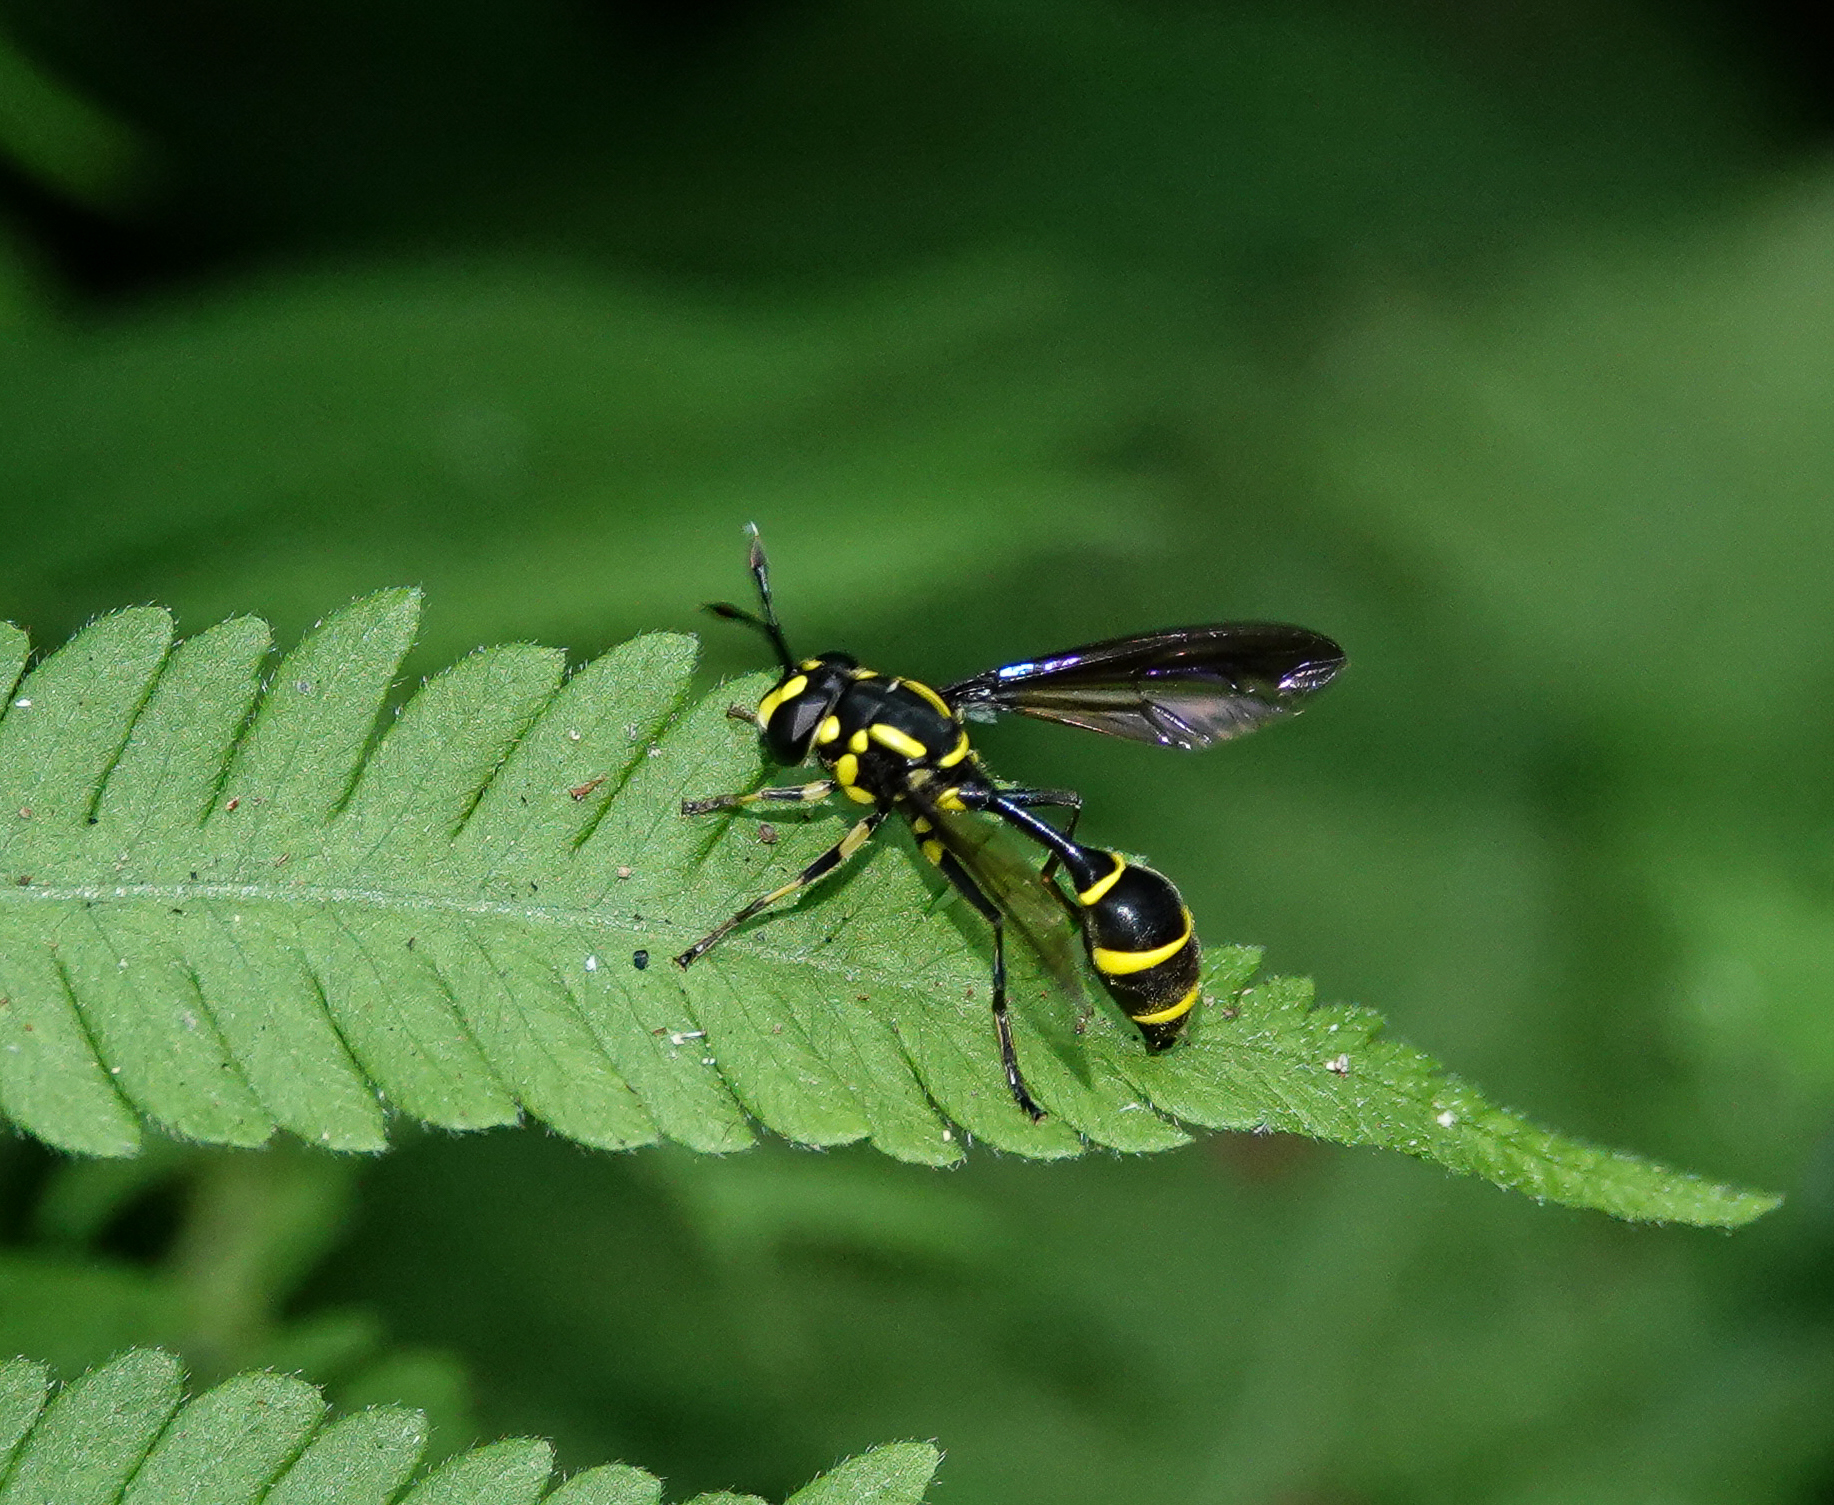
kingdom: Animalia
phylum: Arthropoda
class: Insecta
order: Diptera
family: Syrphidae
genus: Monoceromyia
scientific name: Monoceromyia tredecimpunctata
